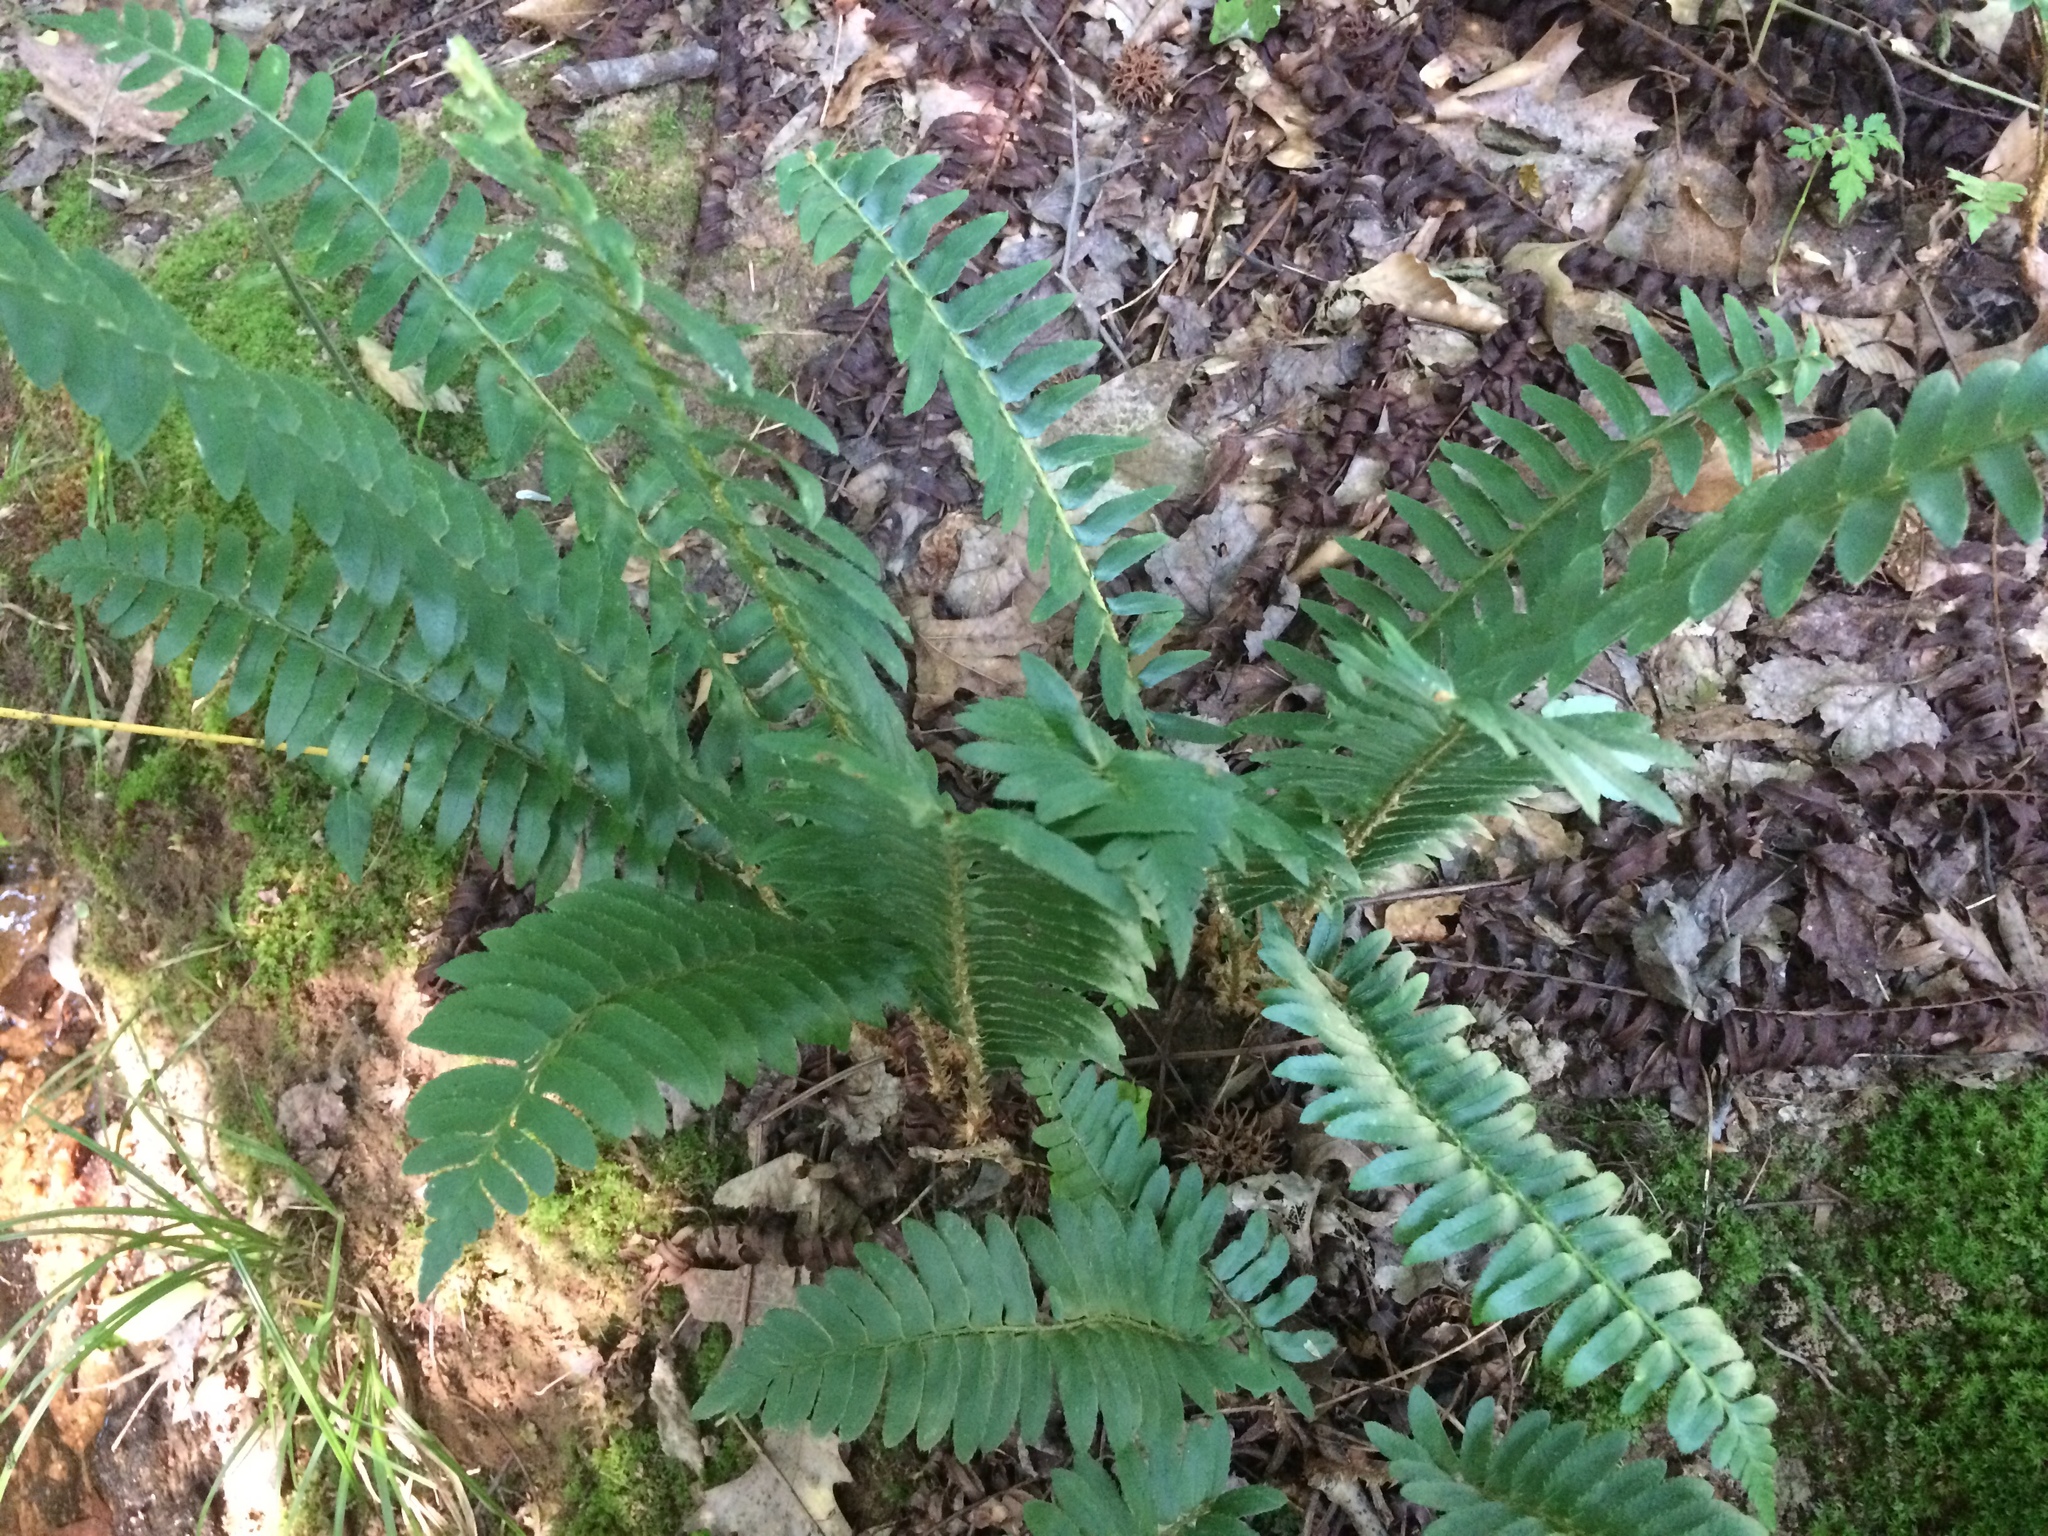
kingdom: Plantae
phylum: Tracheophyta
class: Polypodiopsida
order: Polypodiales
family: Dryopteridaceae
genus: Polystichum
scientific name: Polystichum acrostichoides
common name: Christmas fern
